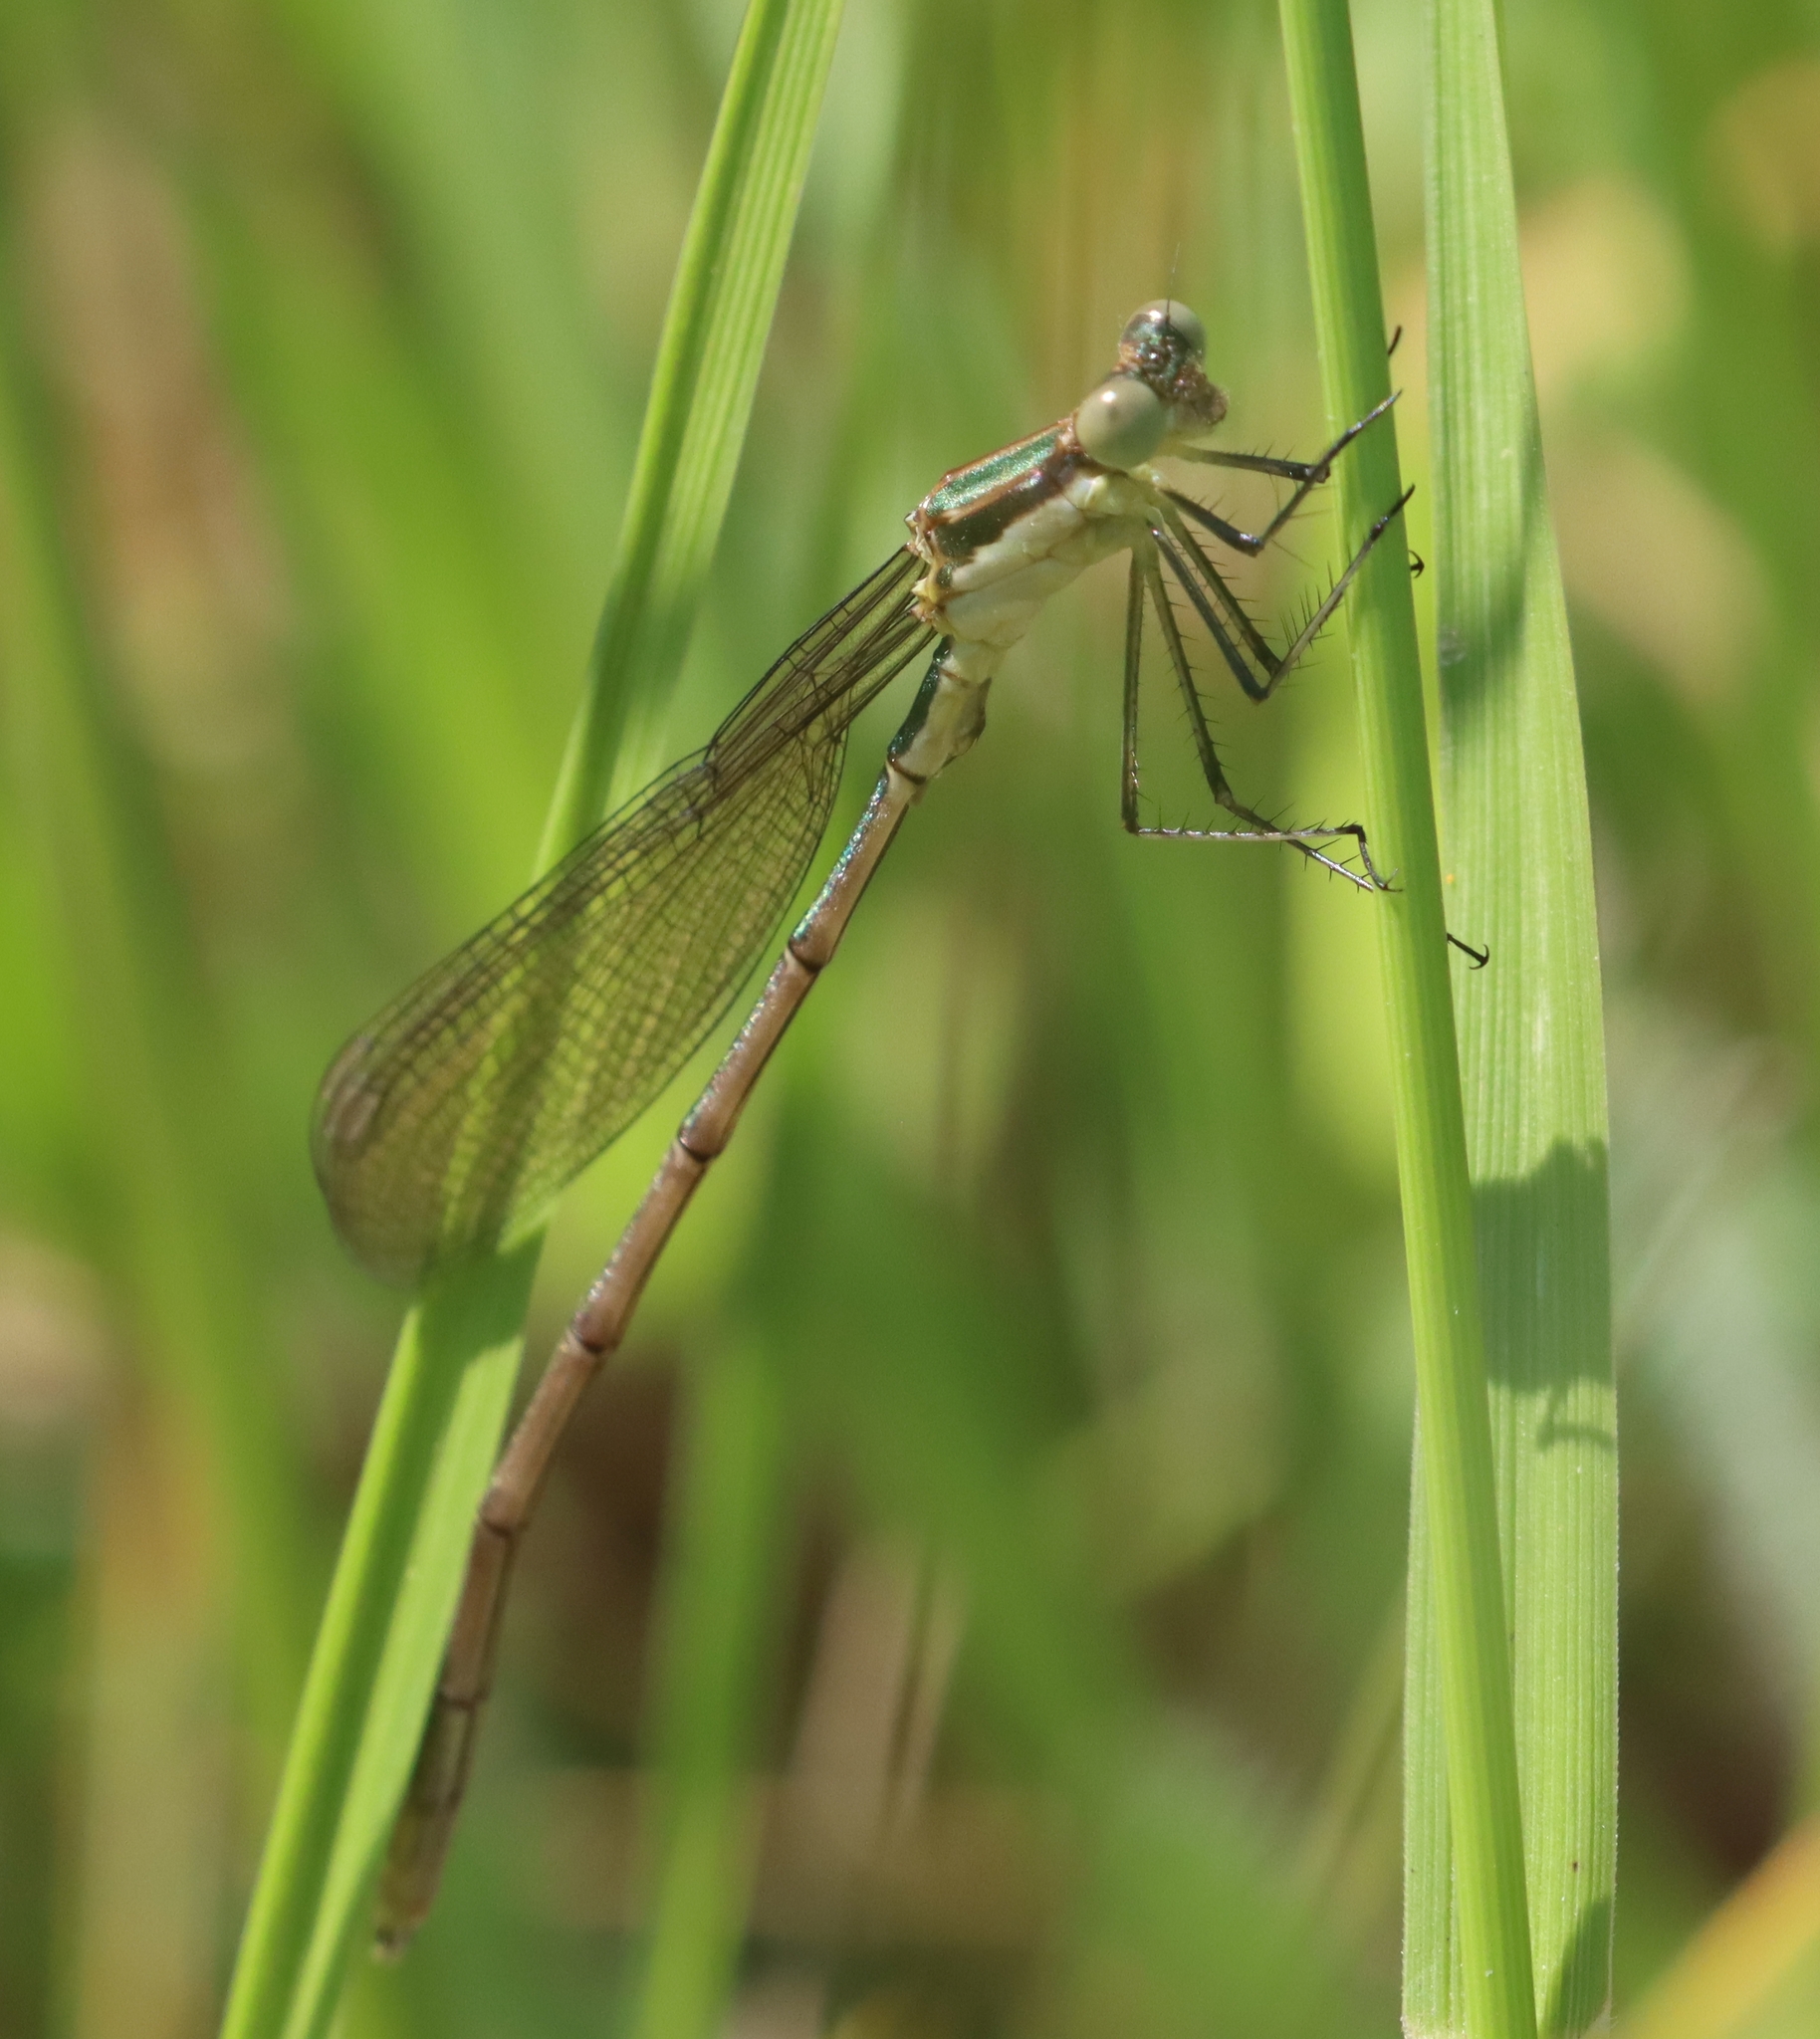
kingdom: Animalia
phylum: Arthropoda
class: Insecta
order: Odonata
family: Lestidae
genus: Lestes
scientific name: Lestes inaequalis
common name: Elegant spreadwing
